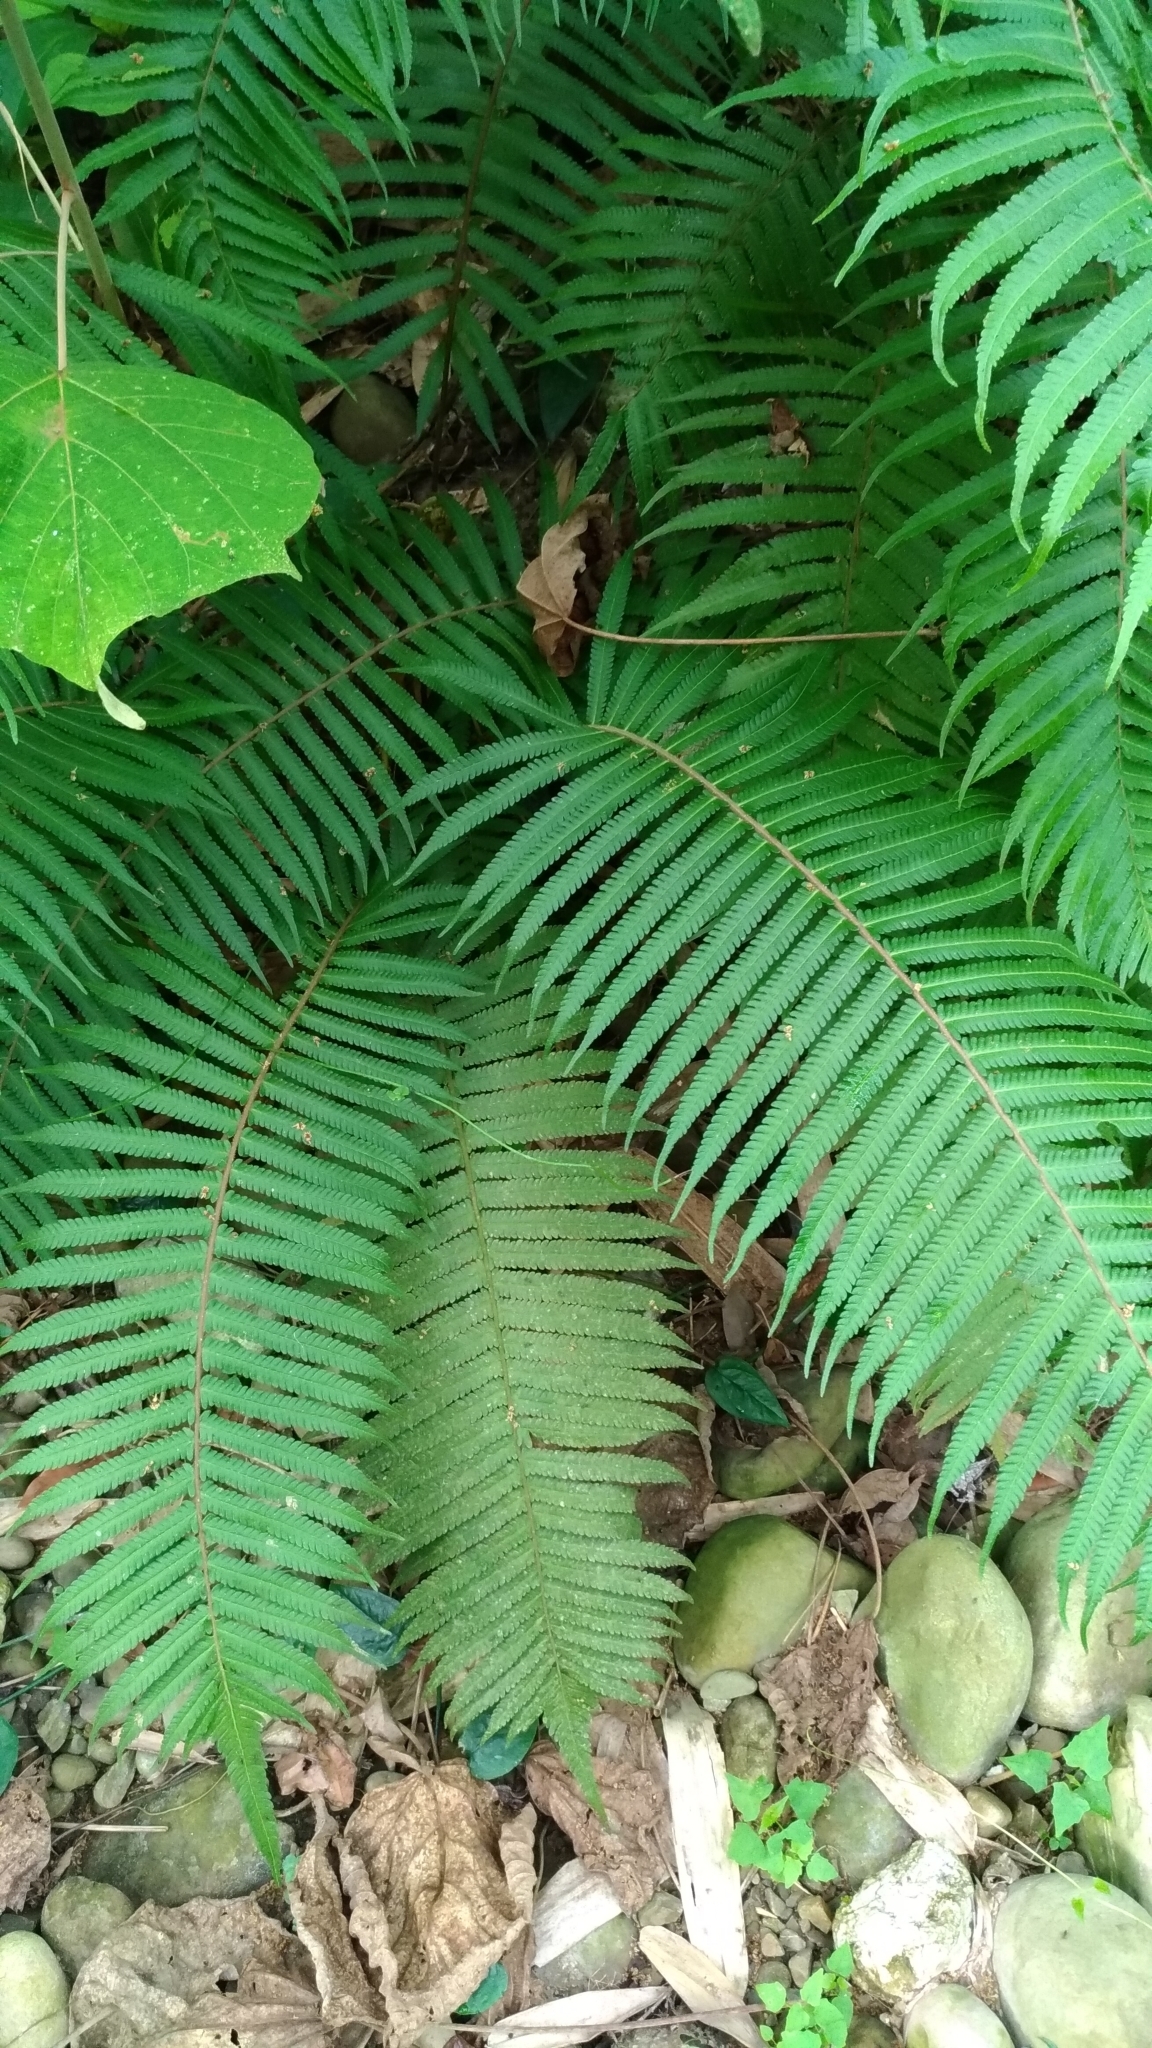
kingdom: Plantae
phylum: Tracheophyta
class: Polypodiopsida
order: Polypodiales
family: Thelypteridaceae
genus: Sphaerostephanos
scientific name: Sphaerostephanos taiwanensis
